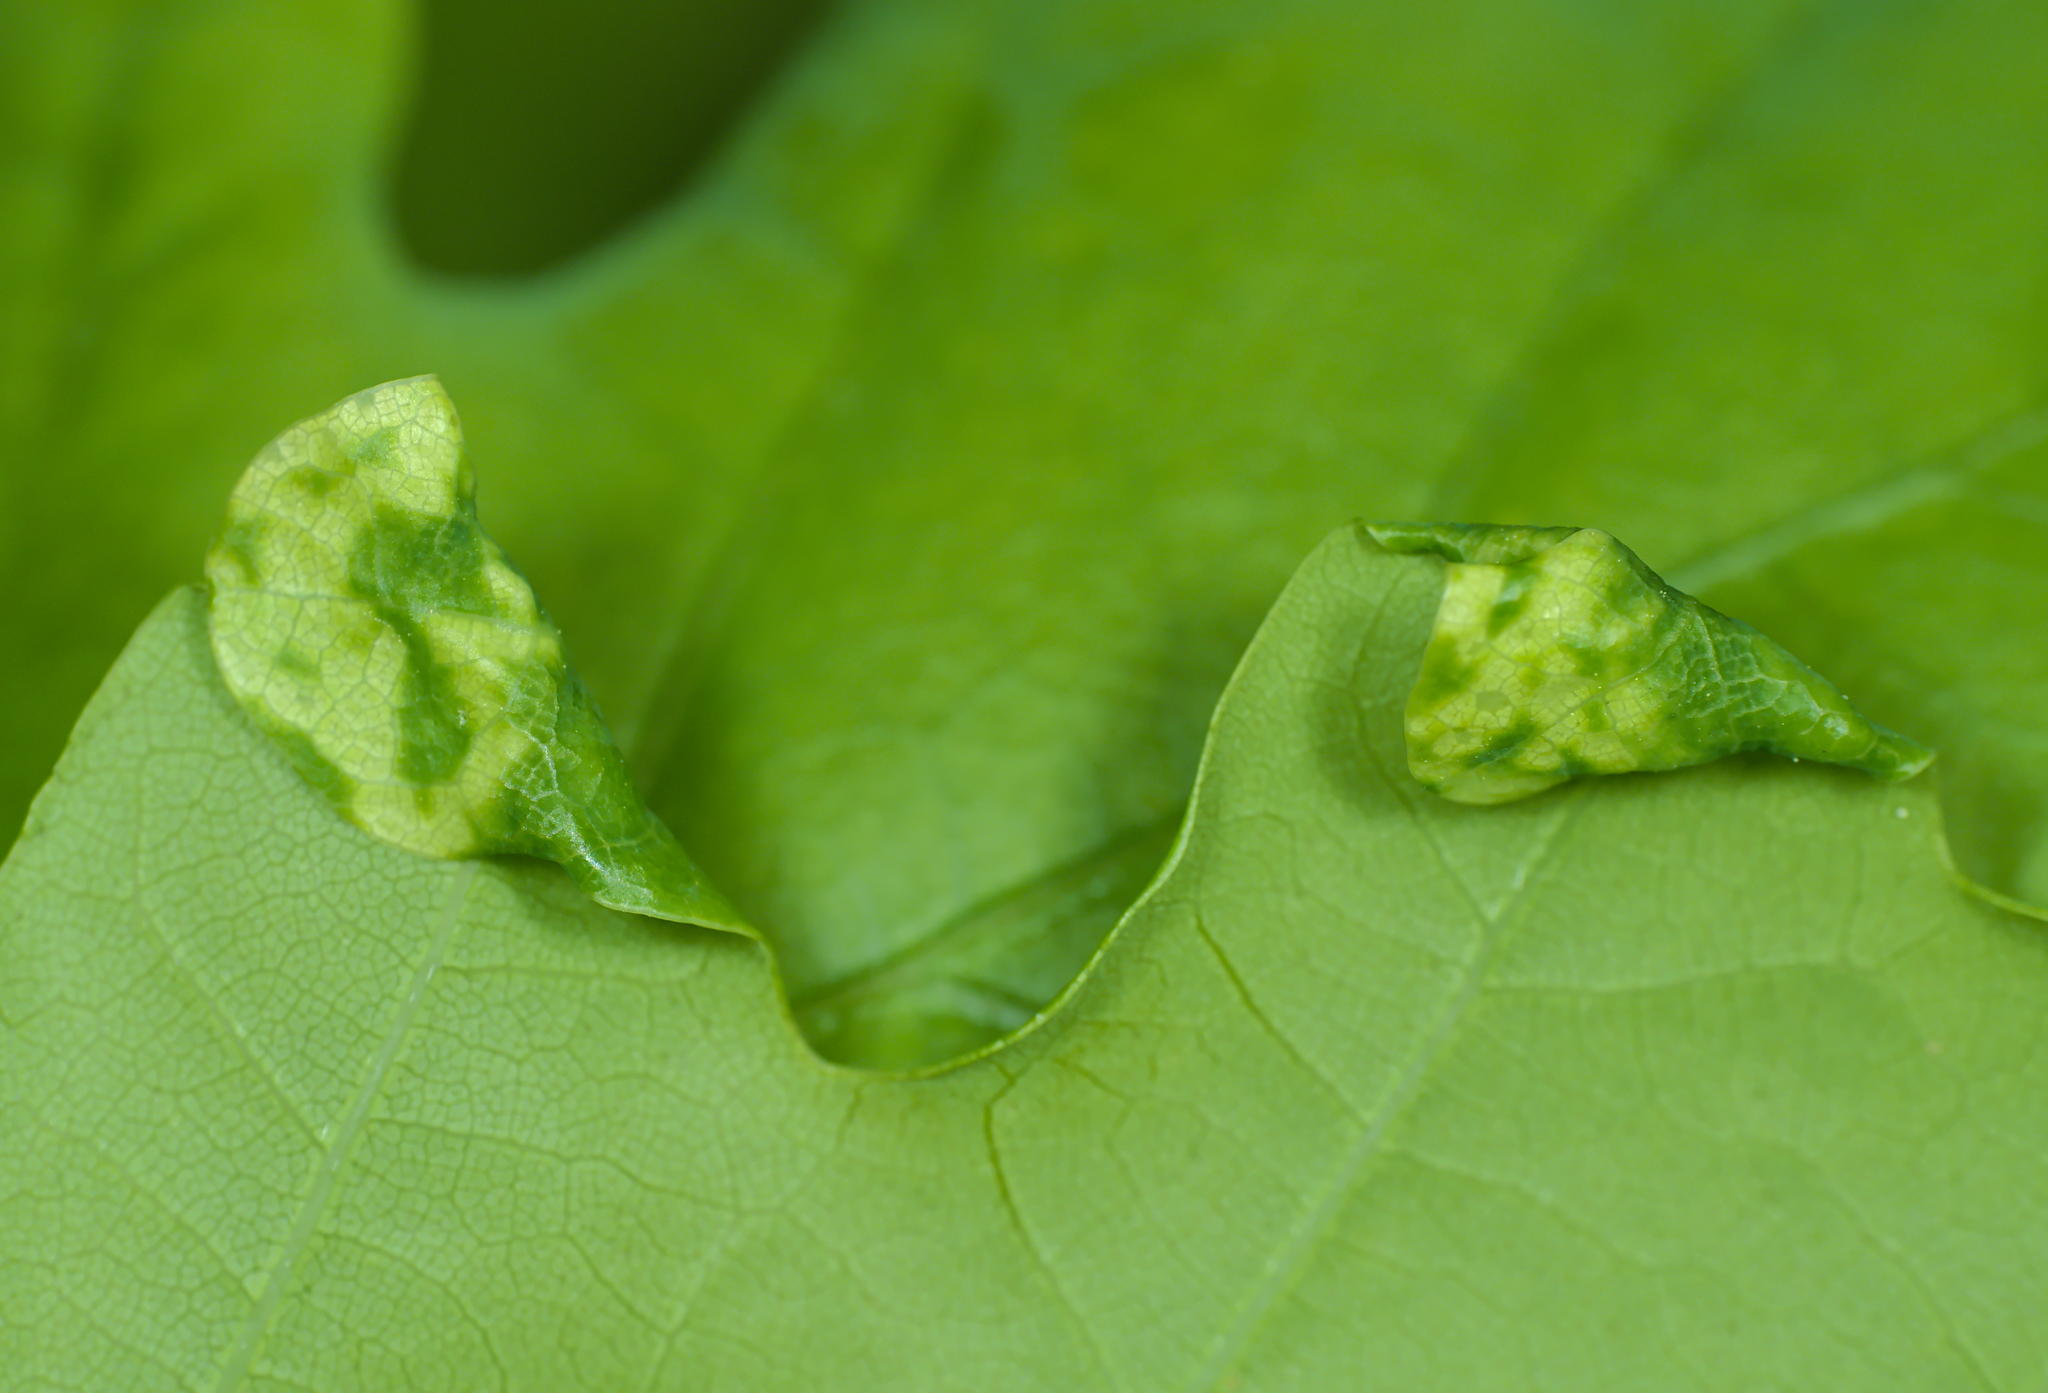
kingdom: Animalia
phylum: Arthropoda
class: Insecta
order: Diptera
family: Cecidomyiidae
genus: Macrodiplosis
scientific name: Macrodiplosis pustularis
